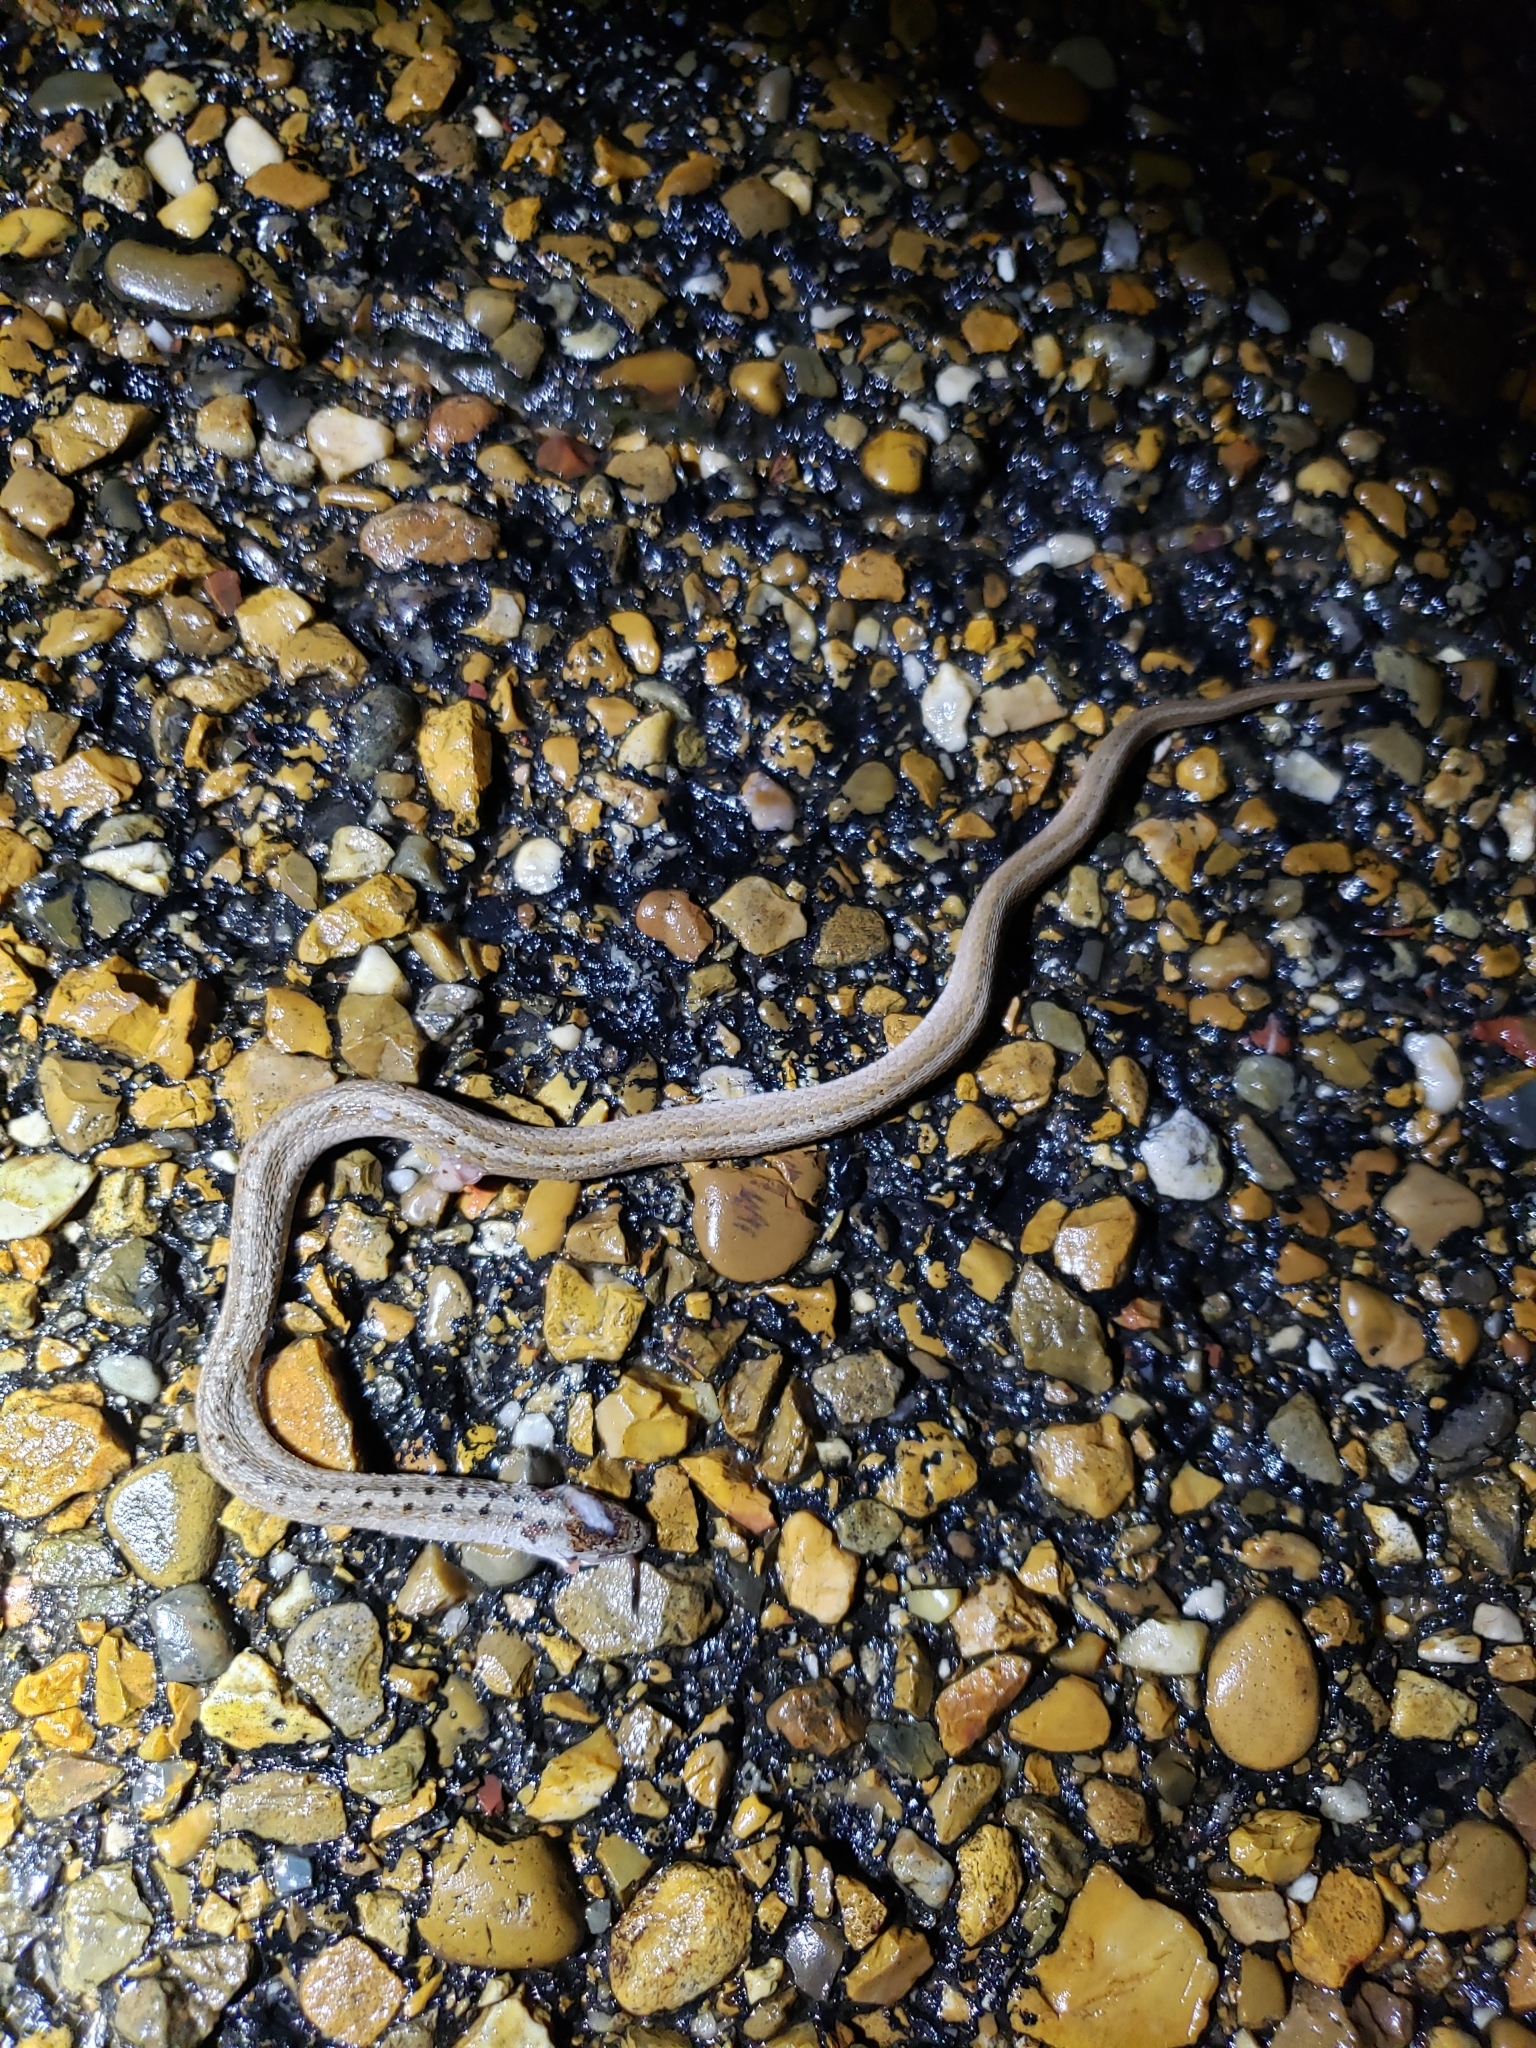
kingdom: Animalia
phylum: Chordata
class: Squamata
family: Colubridae
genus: Storeria
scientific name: Storeria dekayi
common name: (dekay’s) brown snake
